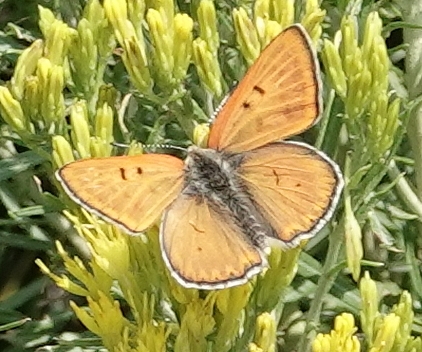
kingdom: Animalia
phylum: Arthropoda
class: Insecta
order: Lepidoptera
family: Lycaenidae
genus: Tharsalea
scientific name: Tharsalea rubidus
